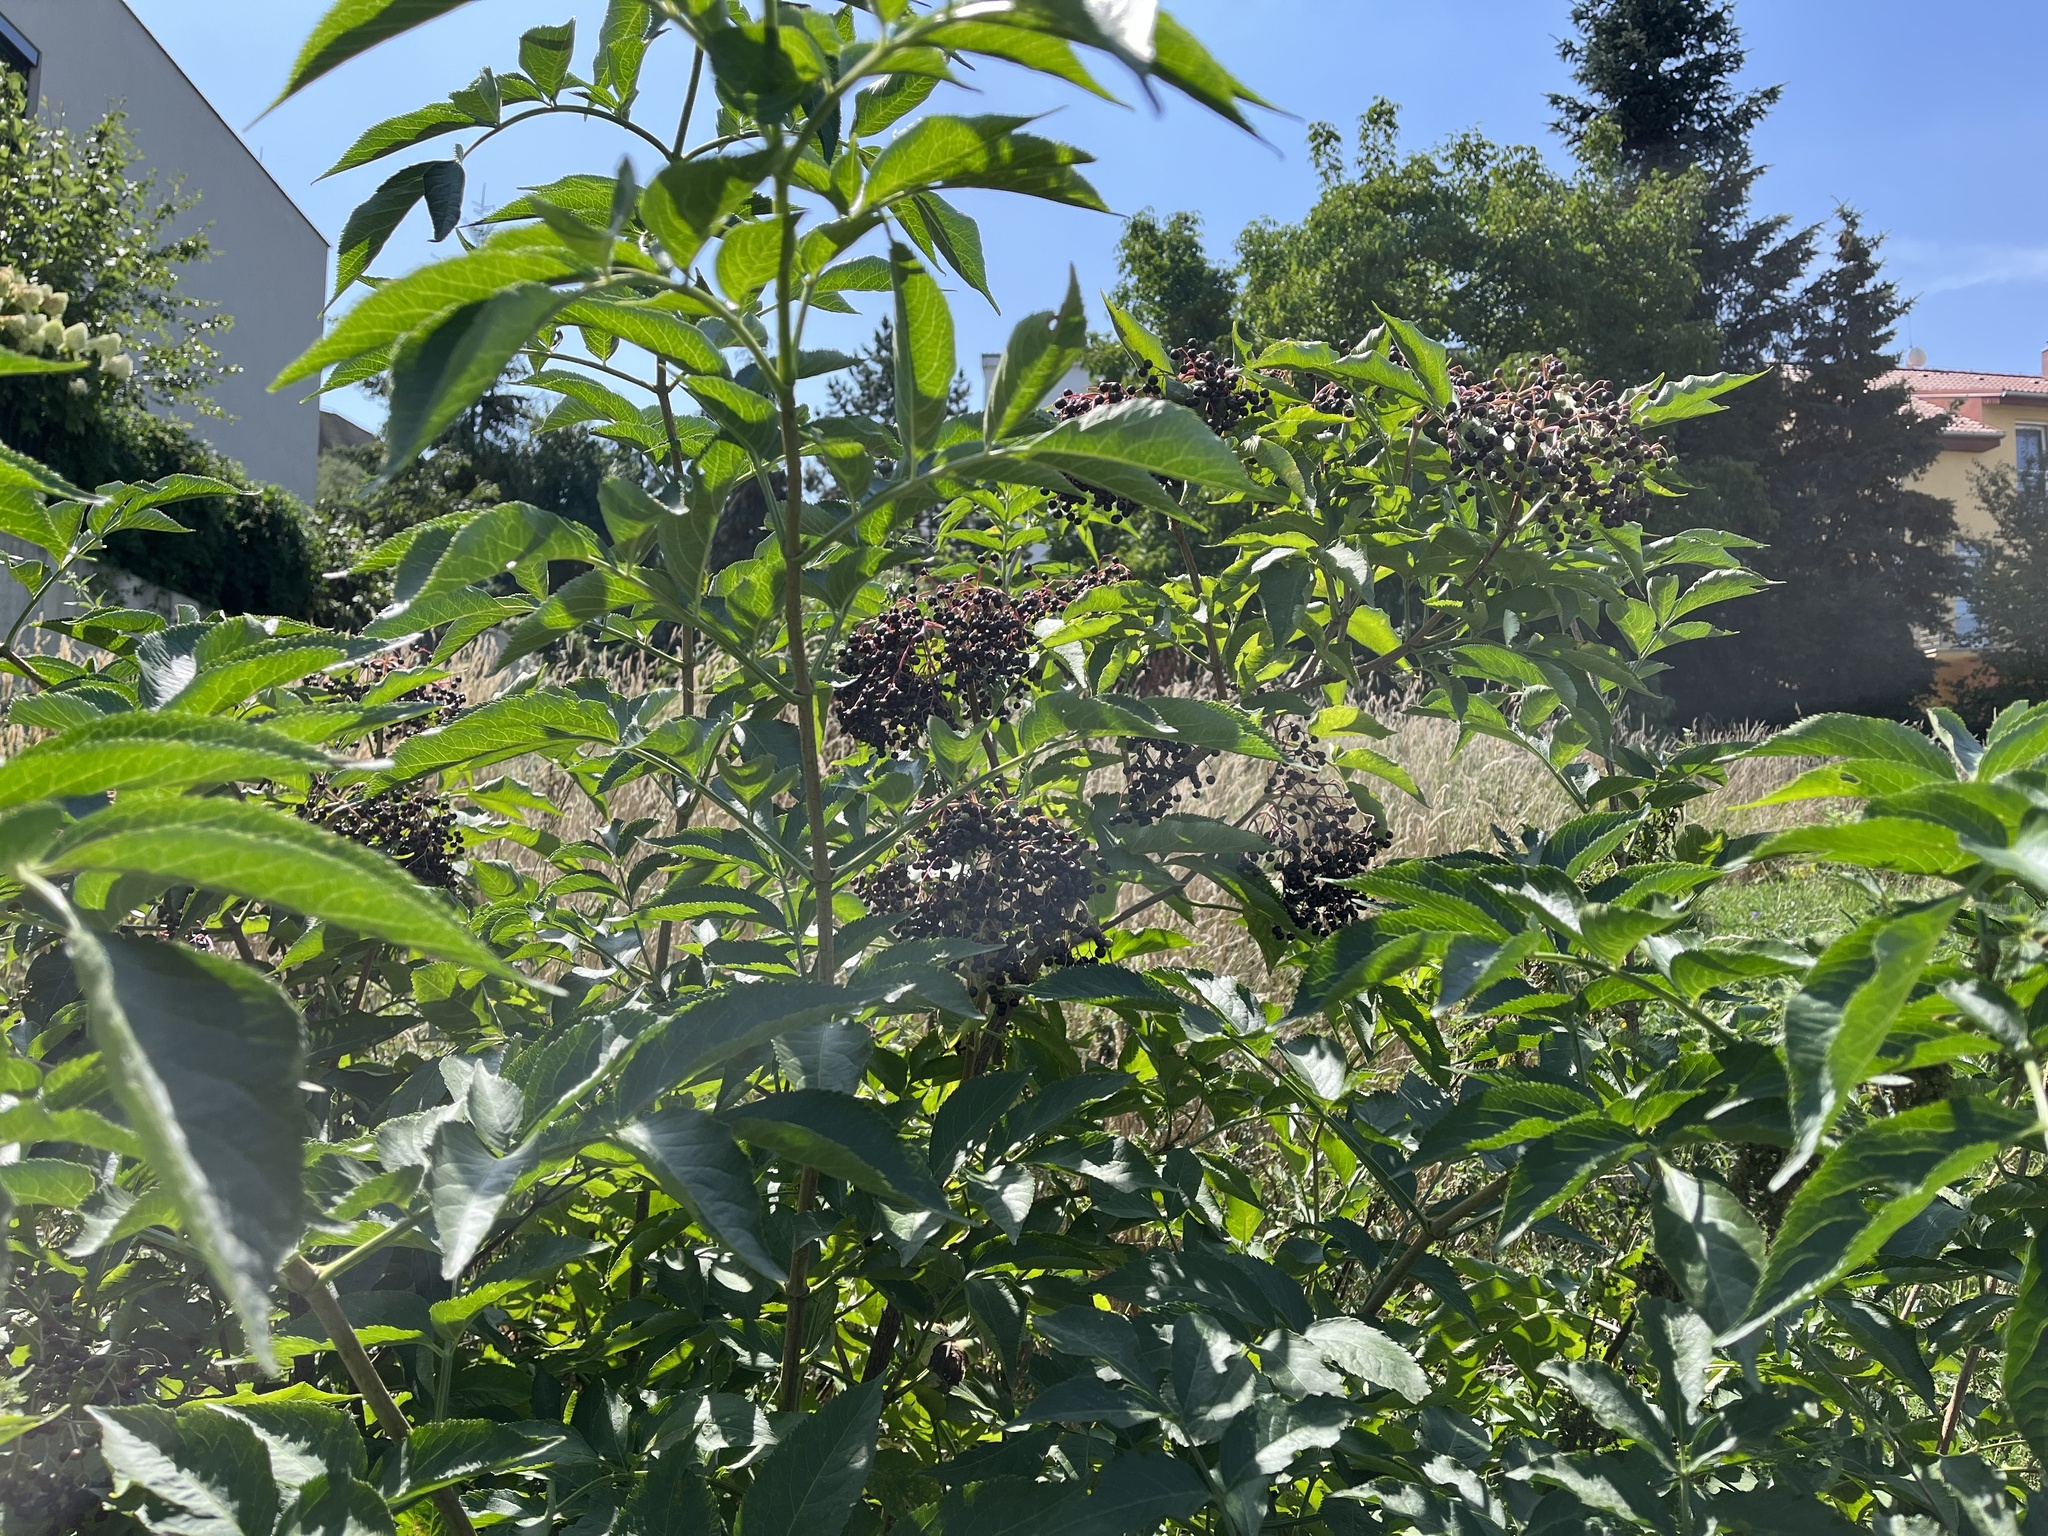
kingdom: Plantae
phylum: Tracheophyta
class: Magnoliopsida
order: Dipsacales
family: Viburnaceae
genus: Sambucus
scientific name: Sambucus nigra
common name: Elder
